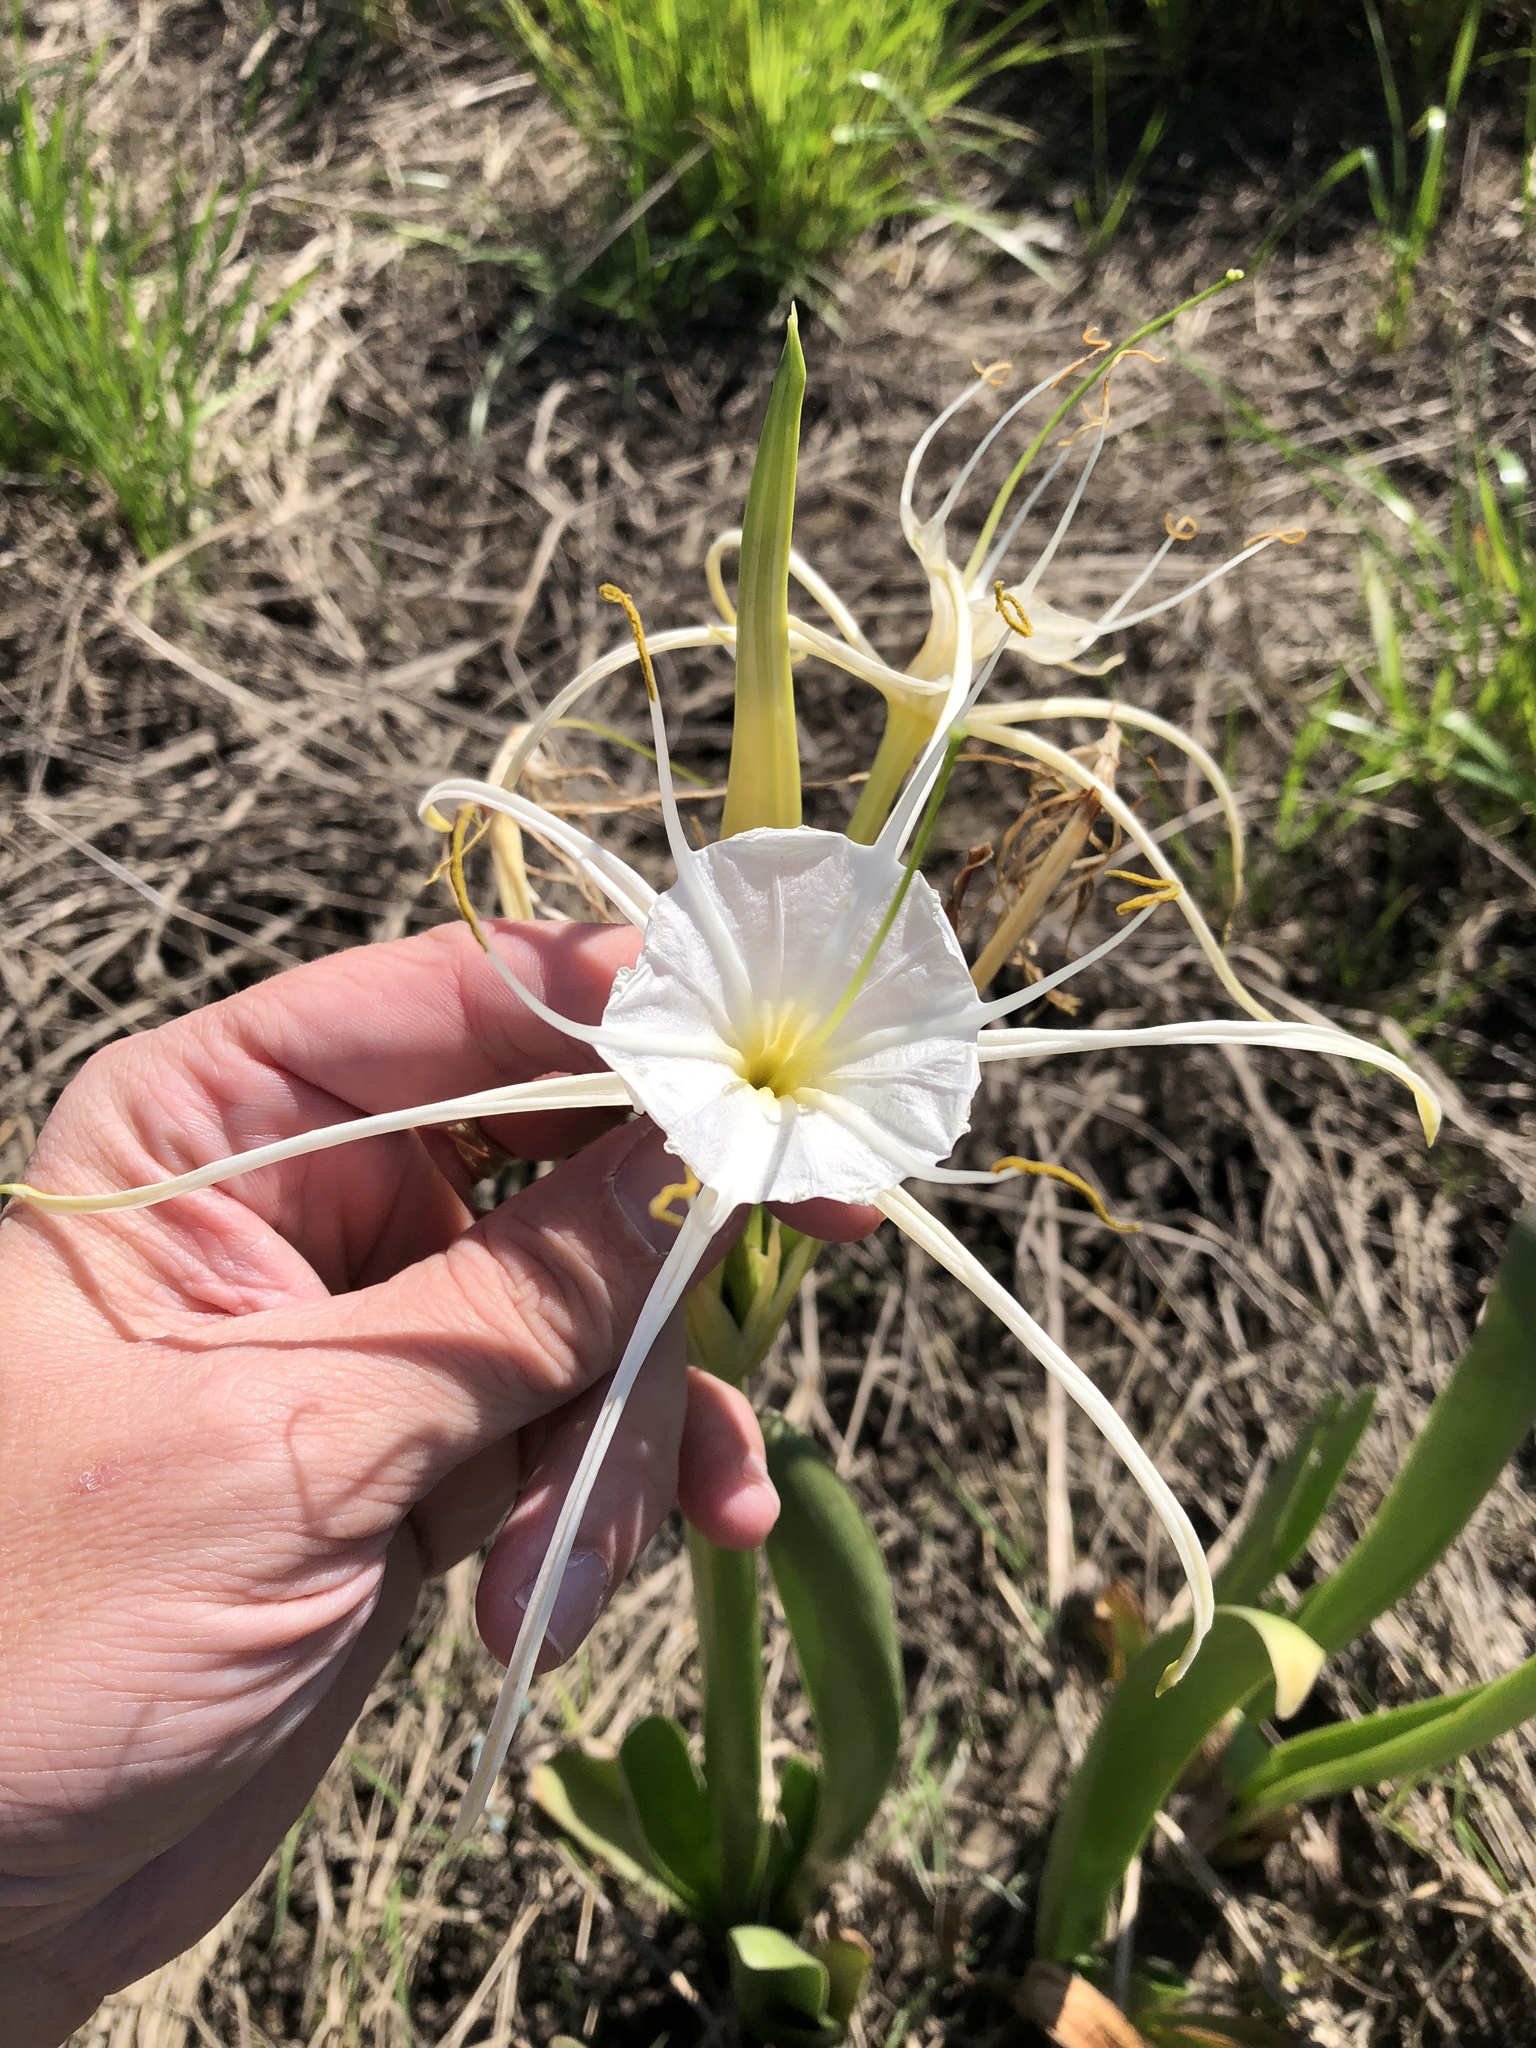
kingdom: Plantae
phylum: Tracheophyta
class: Liliopsida
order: Asparagales
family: Amaryllidaceae
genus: Hymenocallis
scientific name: Hymenocallis liriosme
